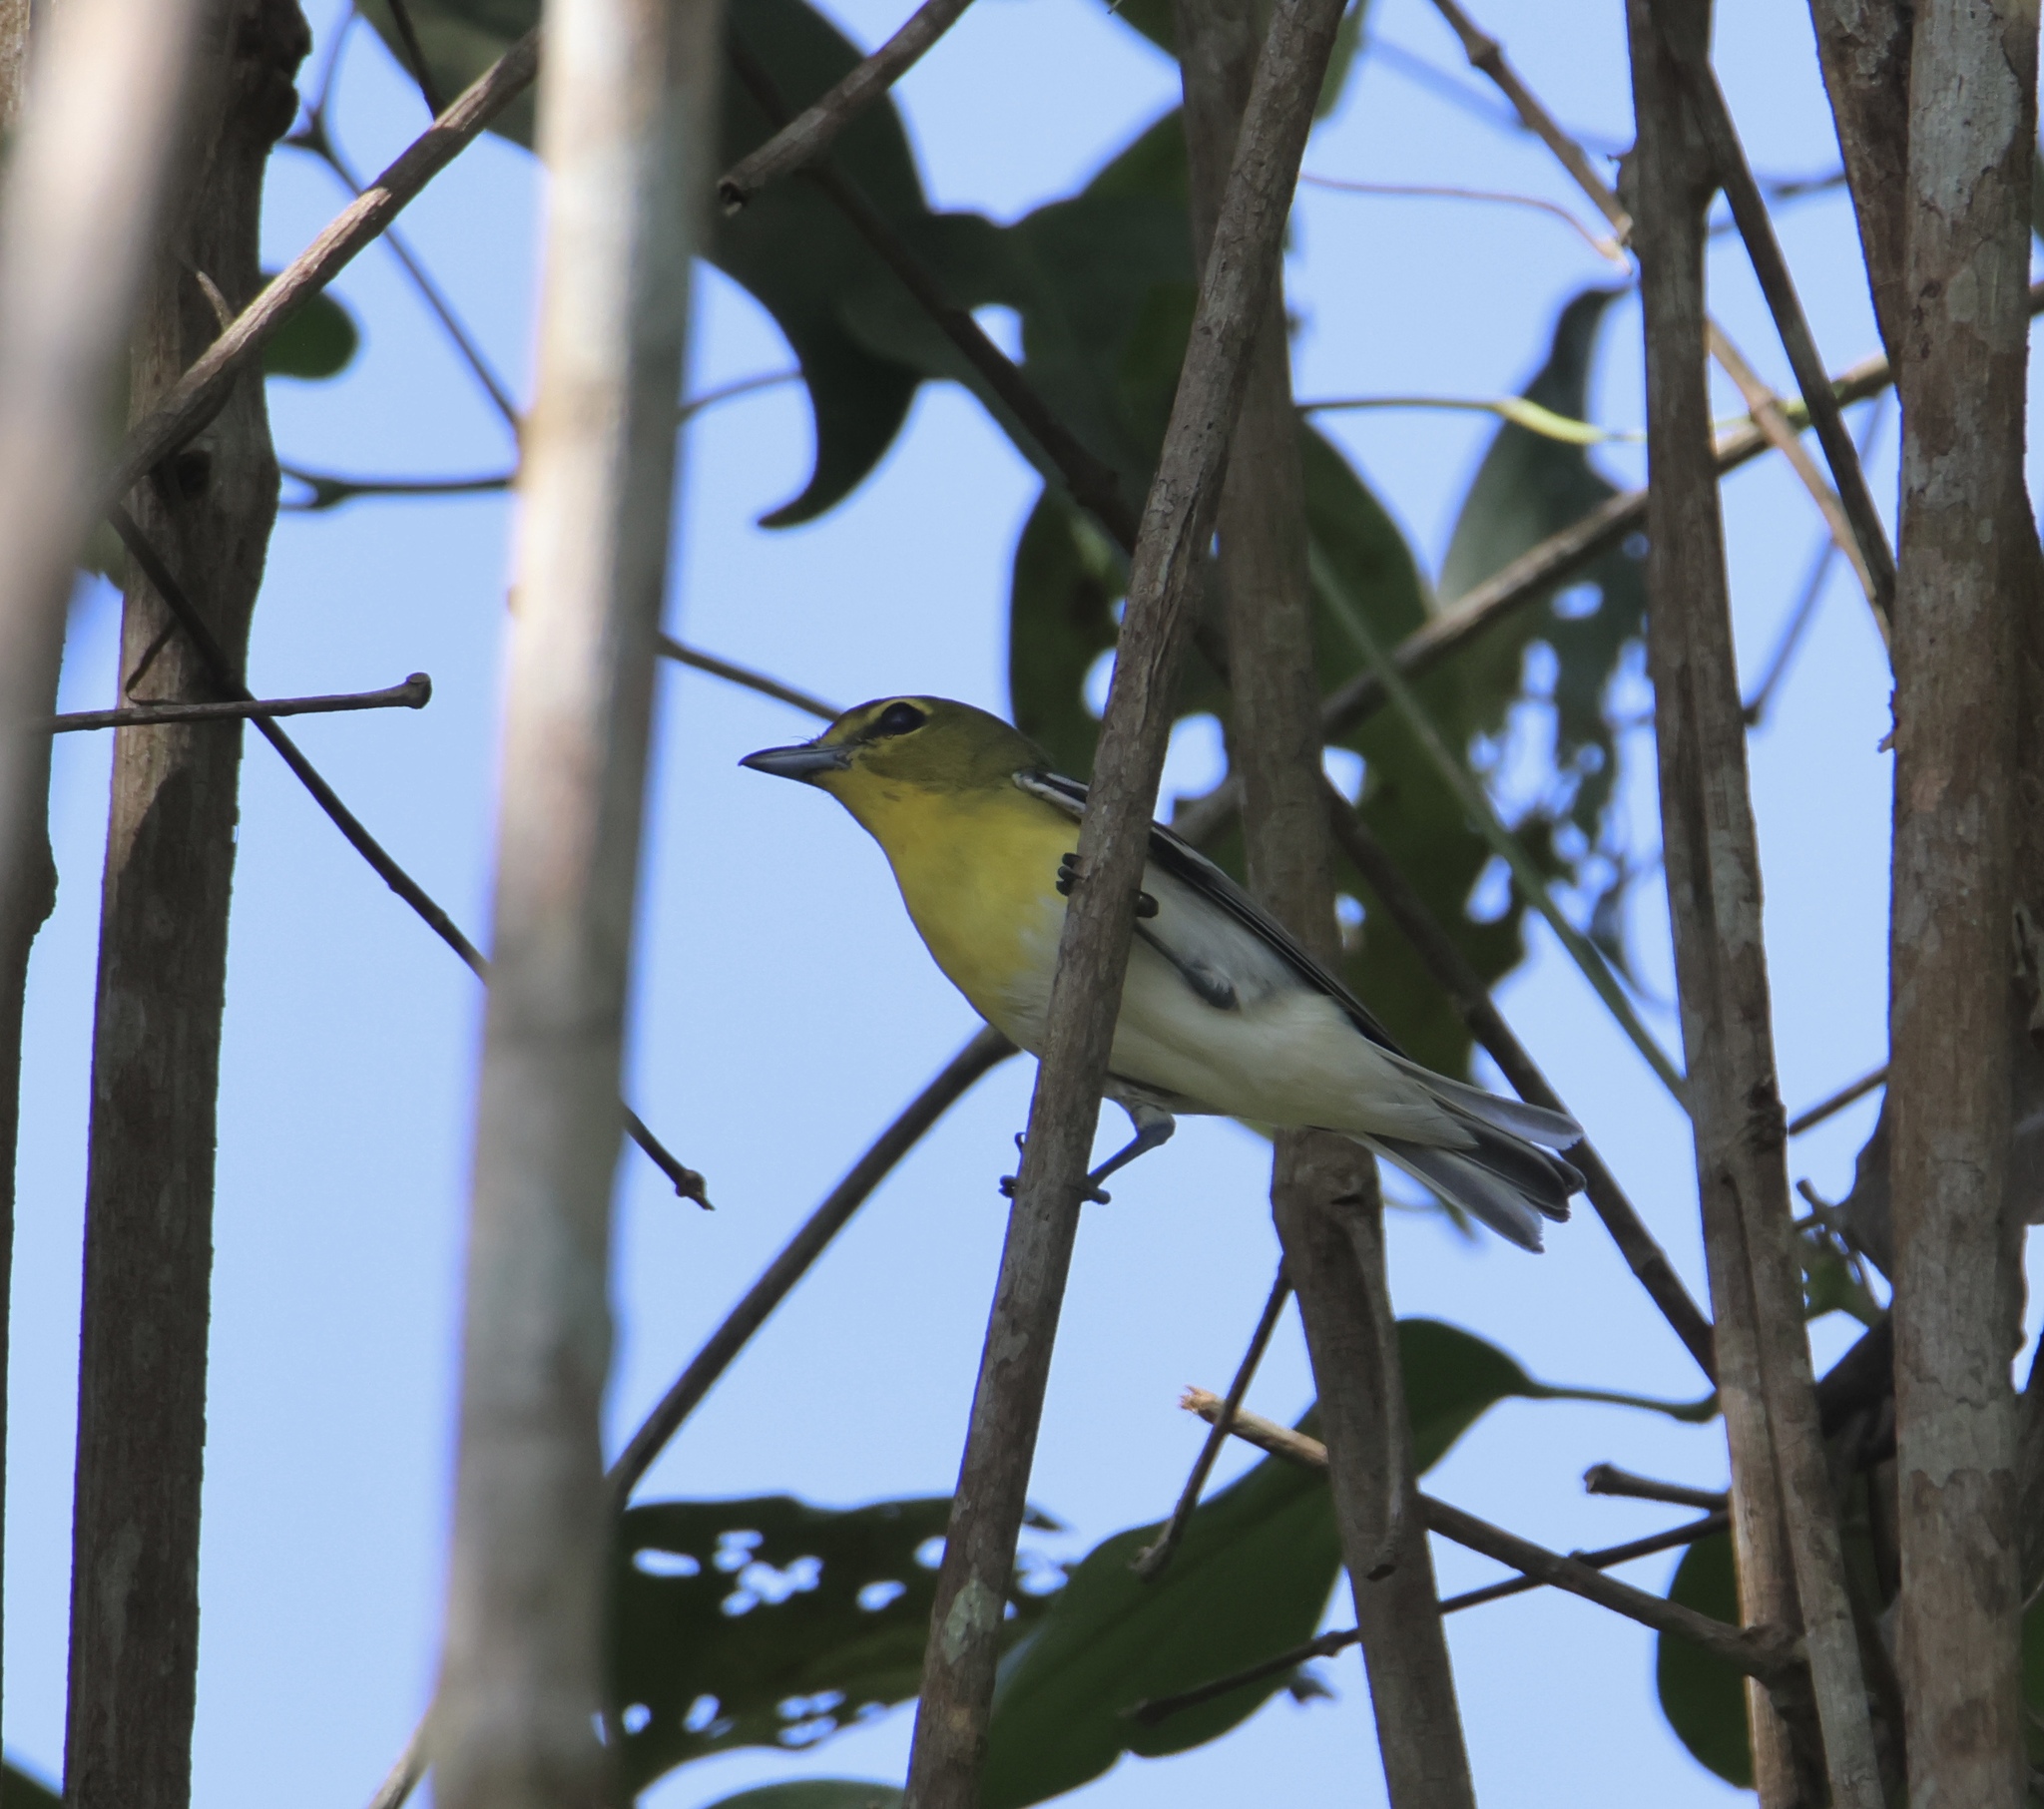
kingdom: Animalia
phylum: Chordata
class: Aves
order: Passeriformes
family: Vireonidae
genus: Vireo
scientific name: Vireo flavifrons
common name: Yellow-throated vireo
